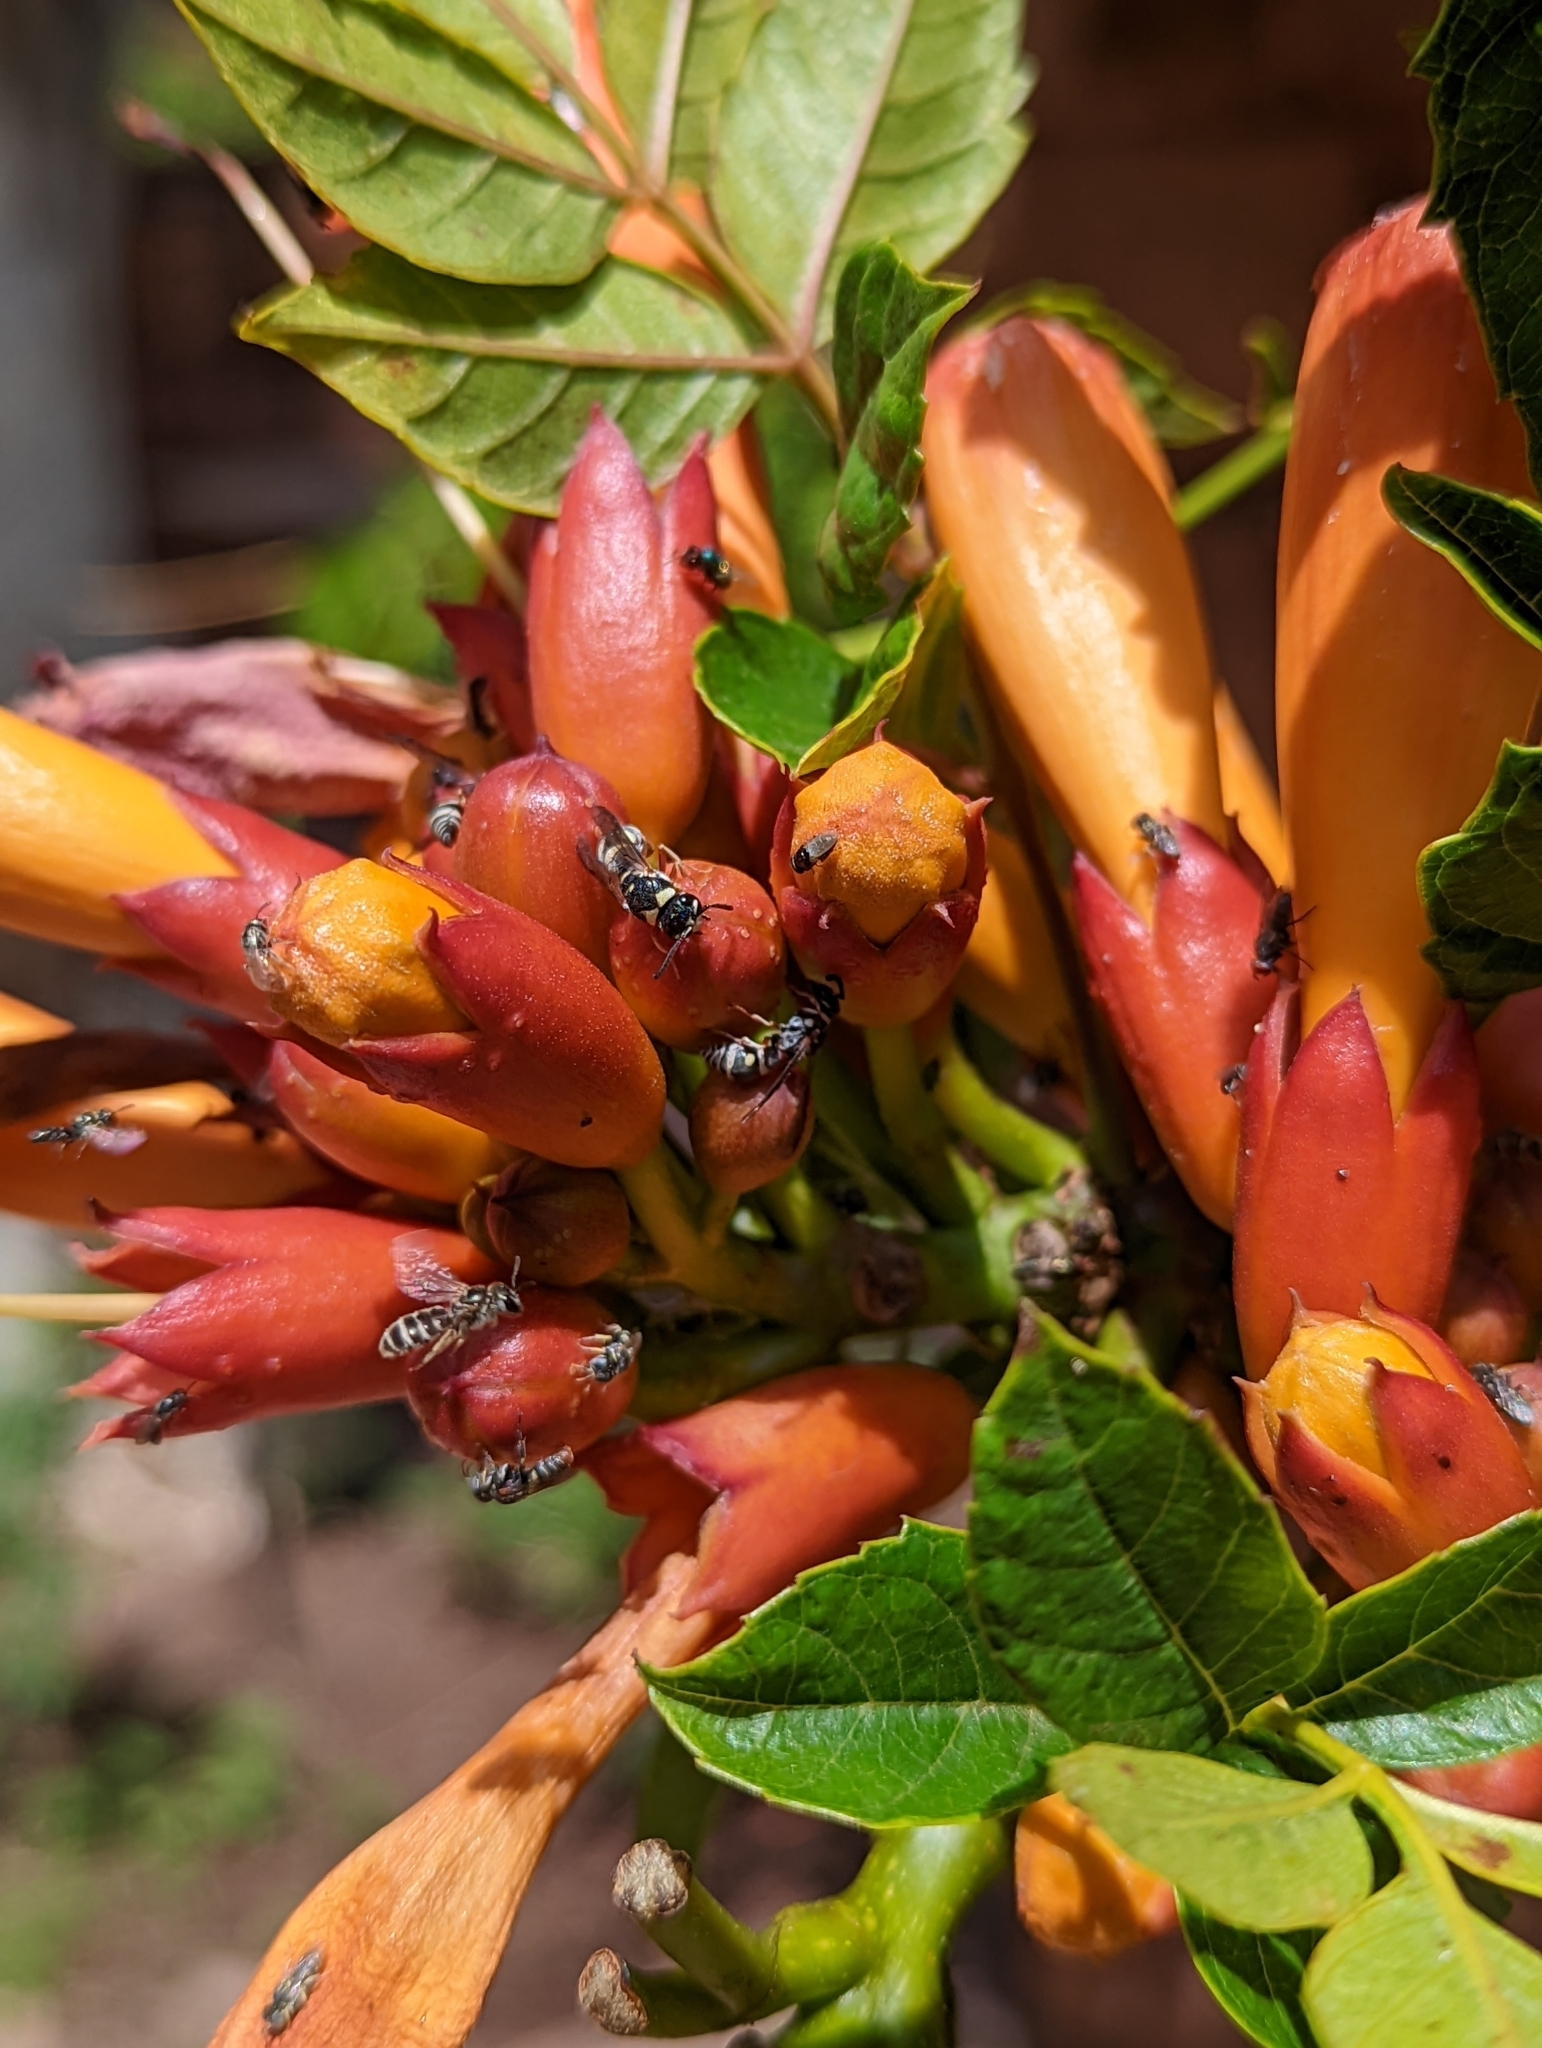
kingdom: Animalia
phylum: Arthropoda
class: Insecta
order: Hymenoptera
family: Halictidae
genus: Halictus
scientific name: Halictus tripartitus
